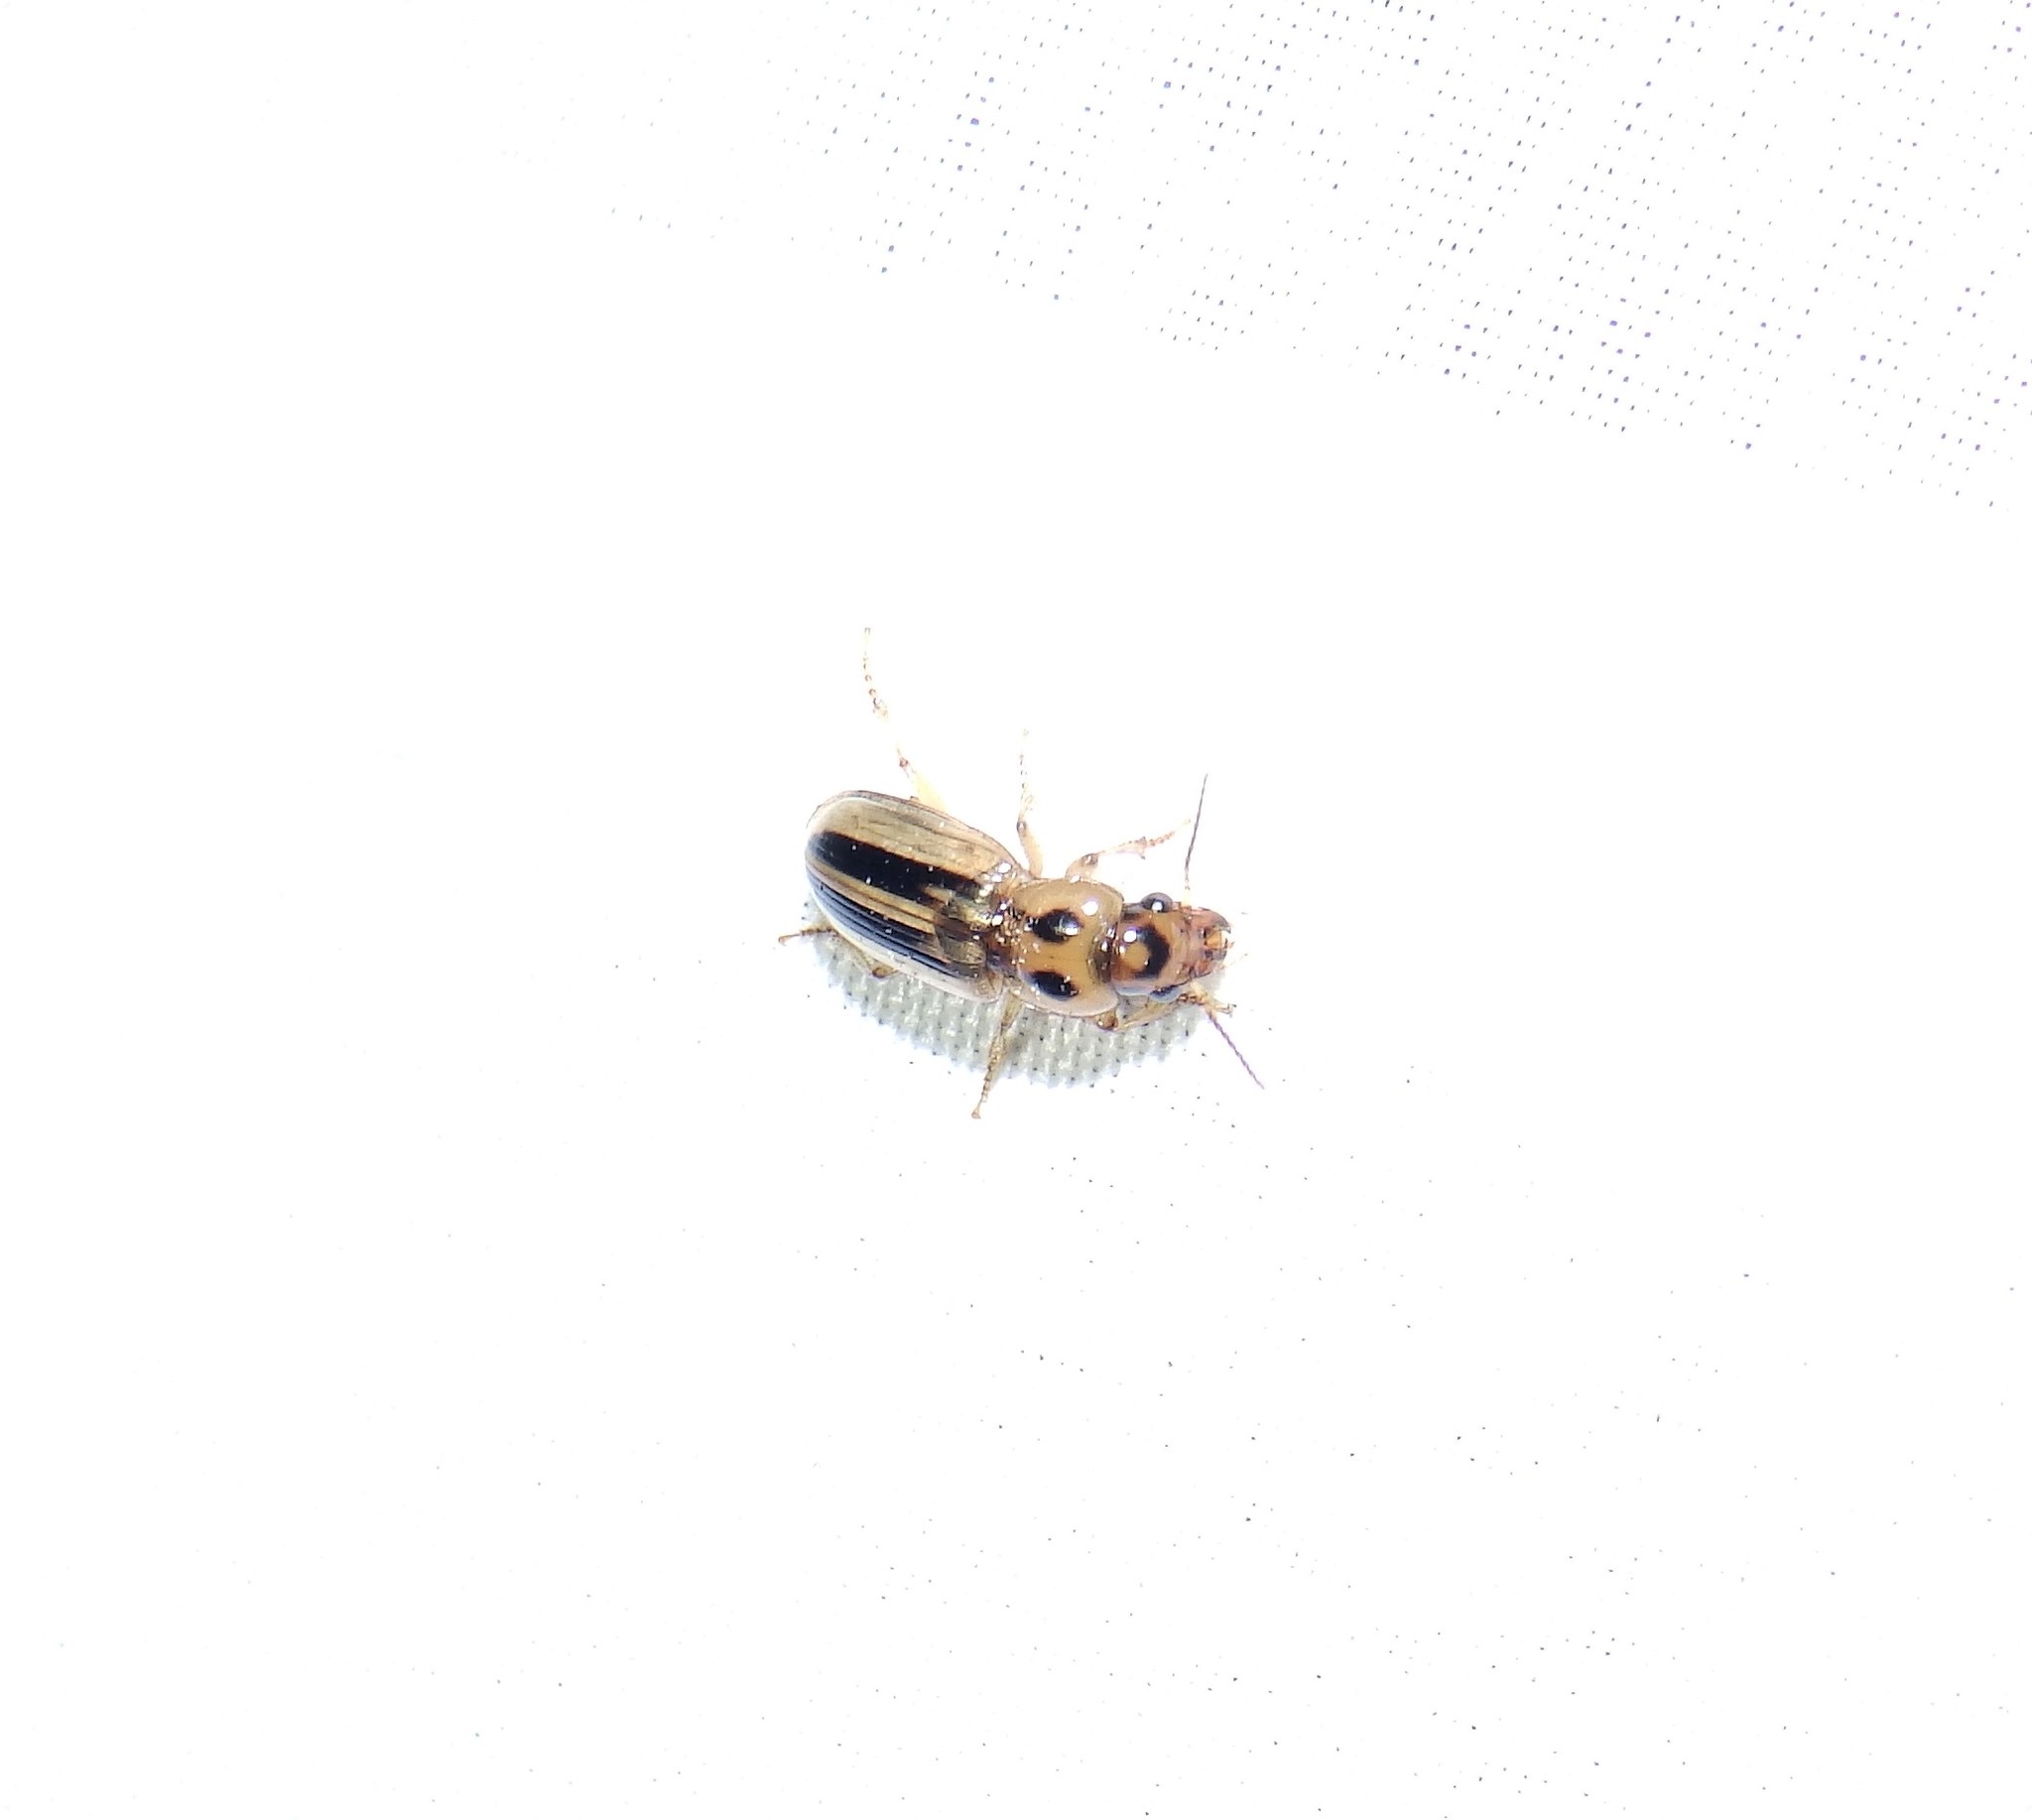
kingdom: Animalia
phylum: Arthropoda
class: Insecta
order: Coleoptera
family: Carabidae
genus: Stenolophus
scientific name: Stenolophus lineola
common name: Lined stenolophus
